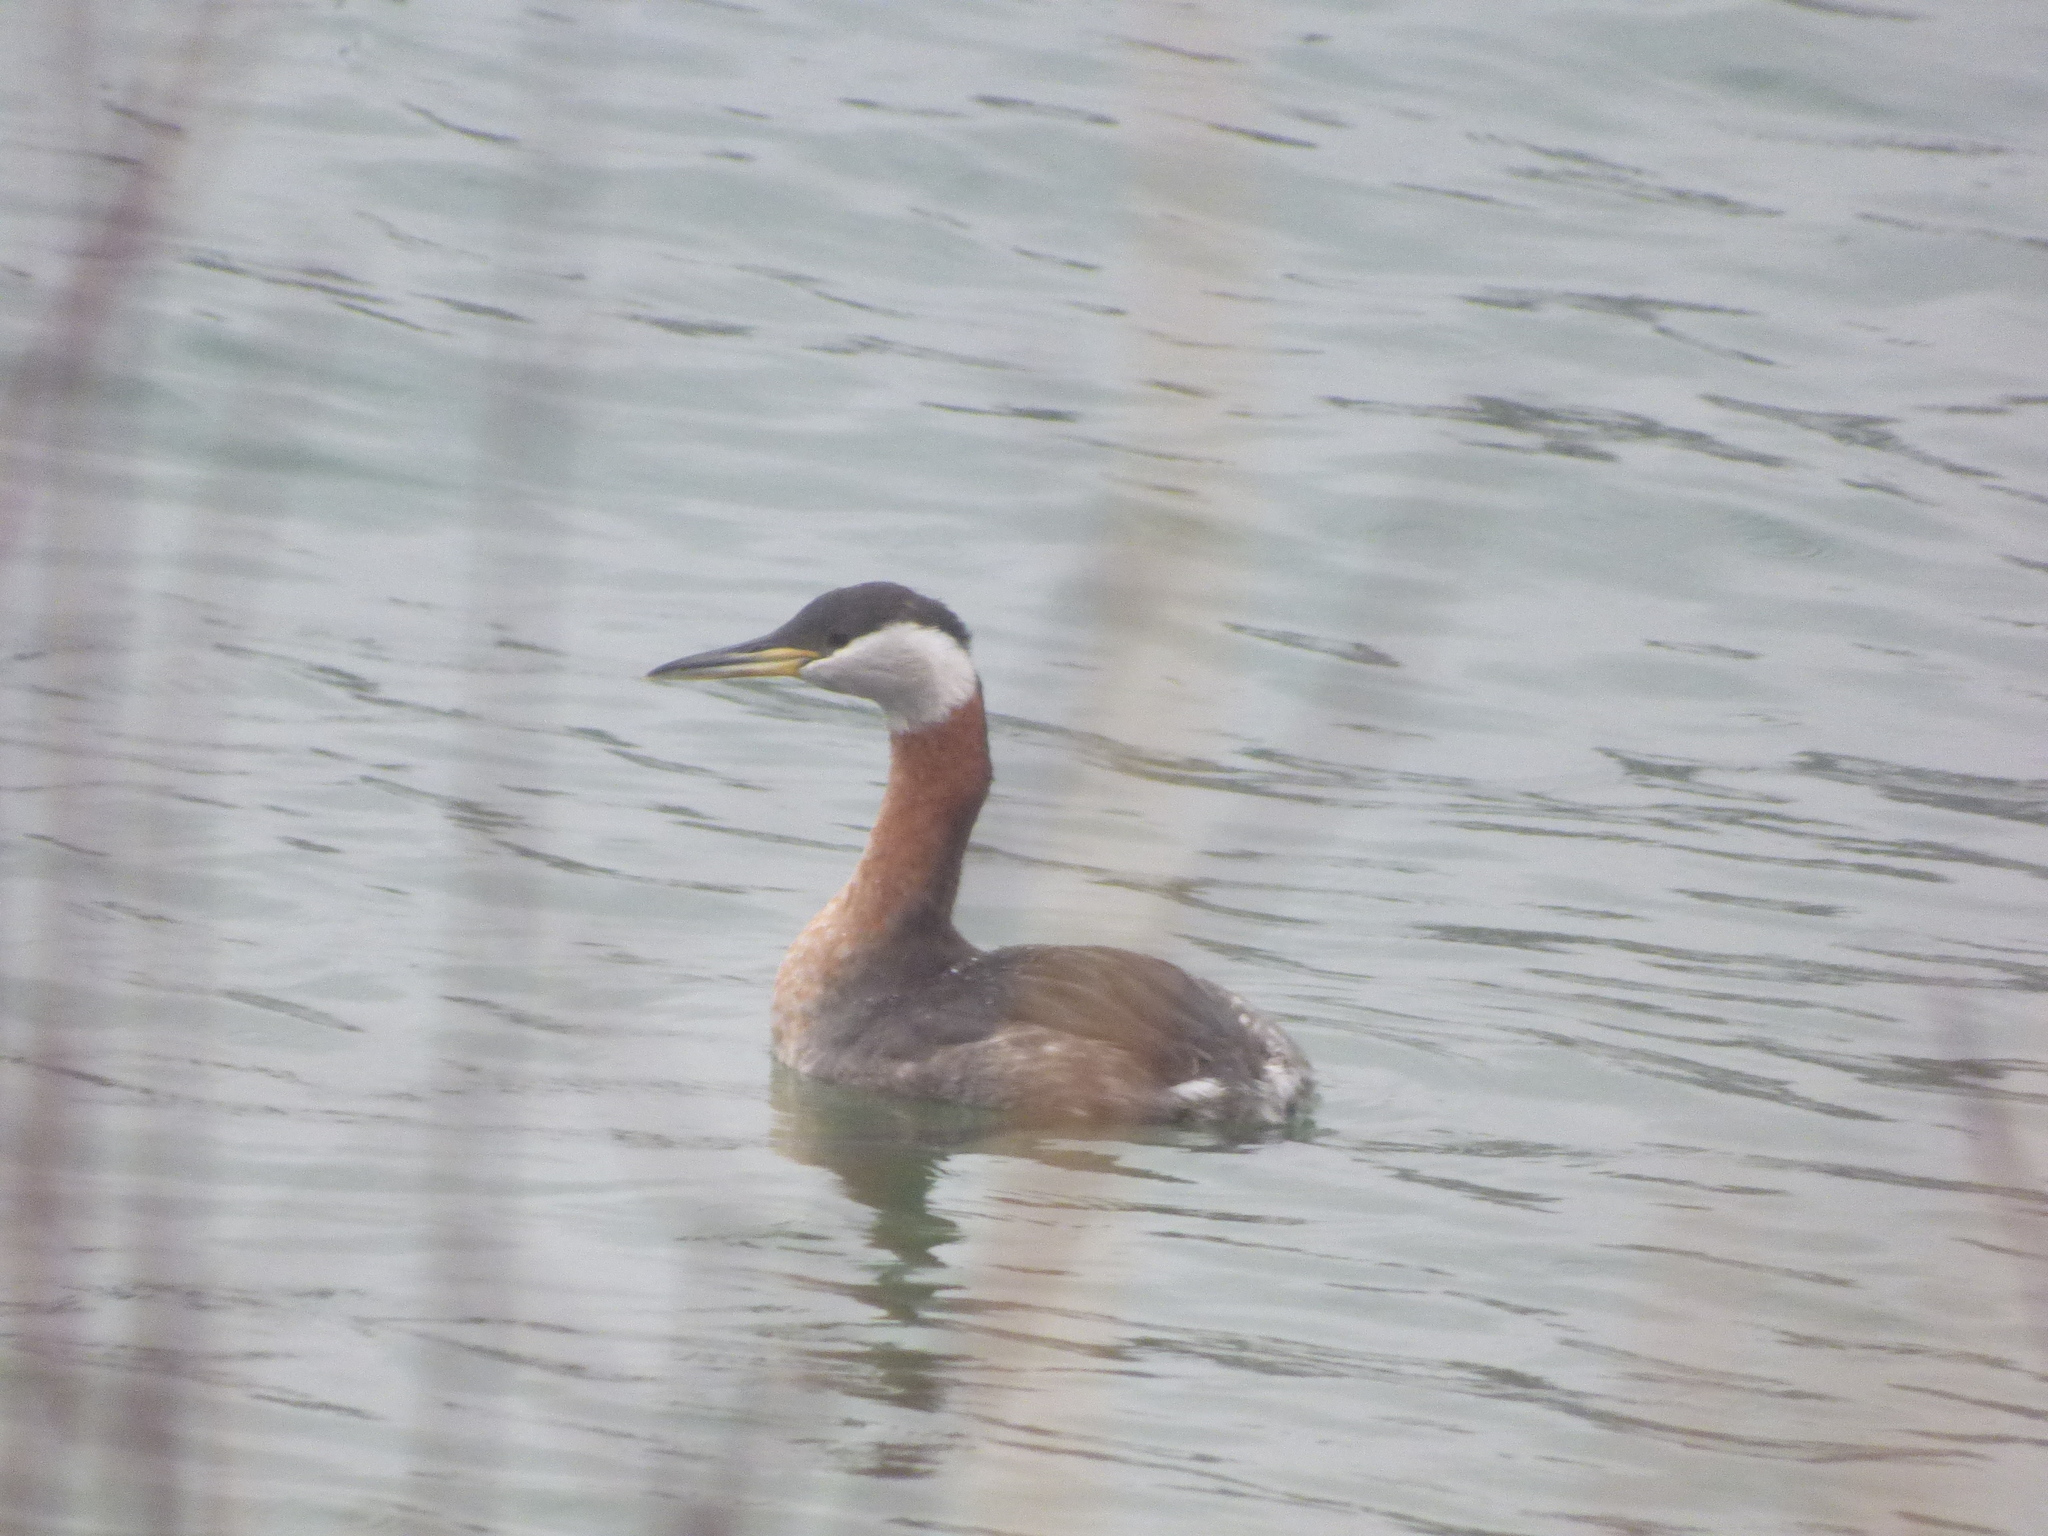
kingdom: Animalia
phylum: Chordata
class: Aves
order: Podicipediformes
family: Podicipedidae
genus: Podiceps
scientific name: Podiceps grisegena
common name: Red-necked grebe
